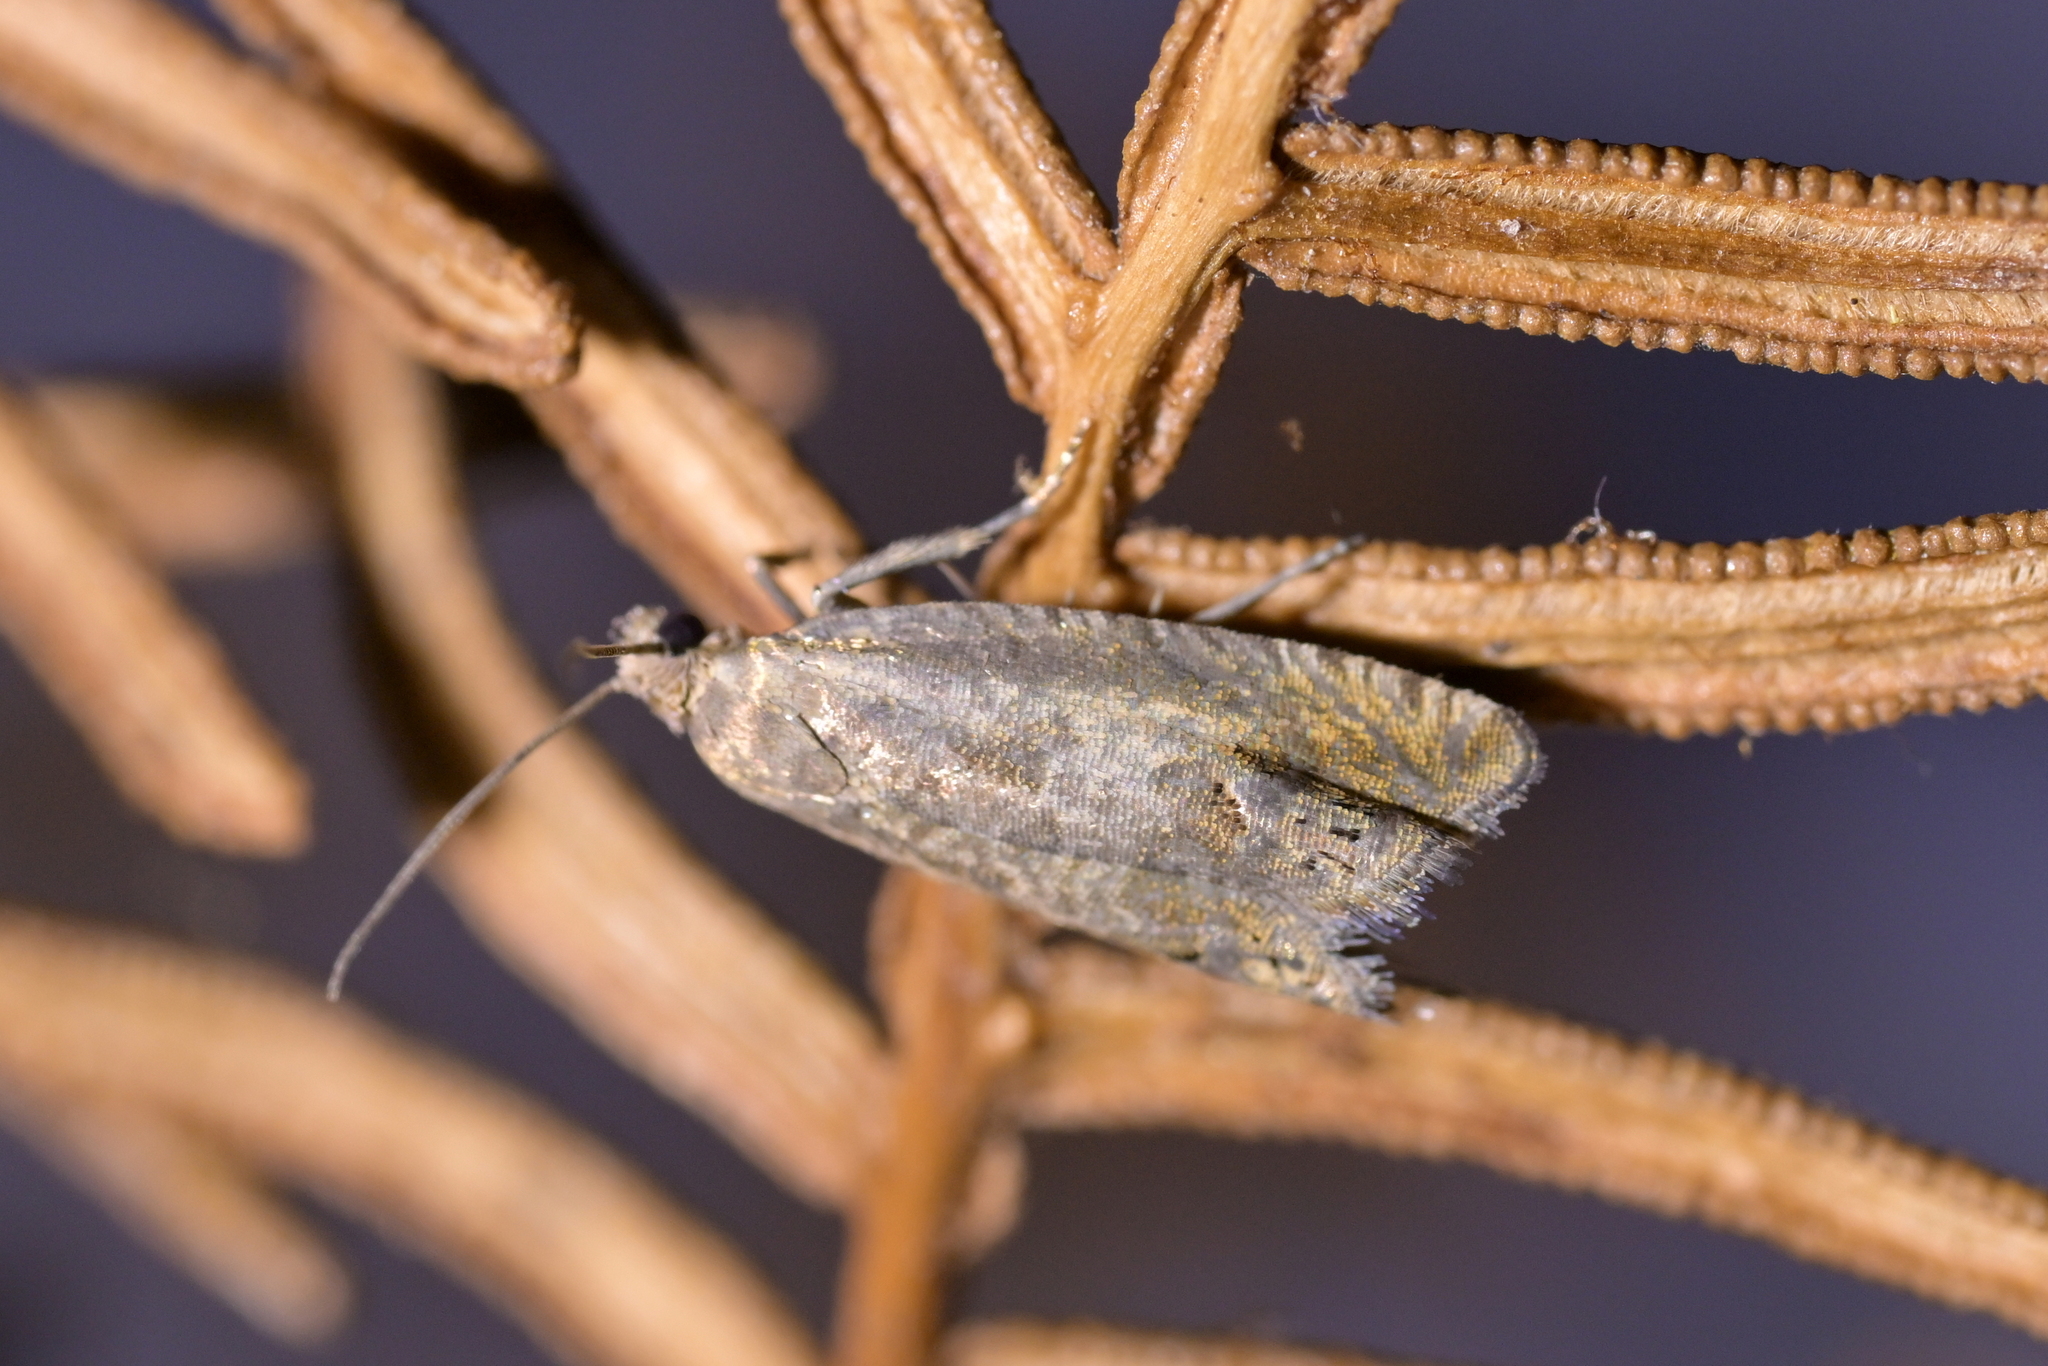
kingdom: Animalia
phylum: Arthropoda
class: Insecta
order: Lepidoptera
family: Tortricidae
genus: Cydia
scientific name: Cydia succedana
